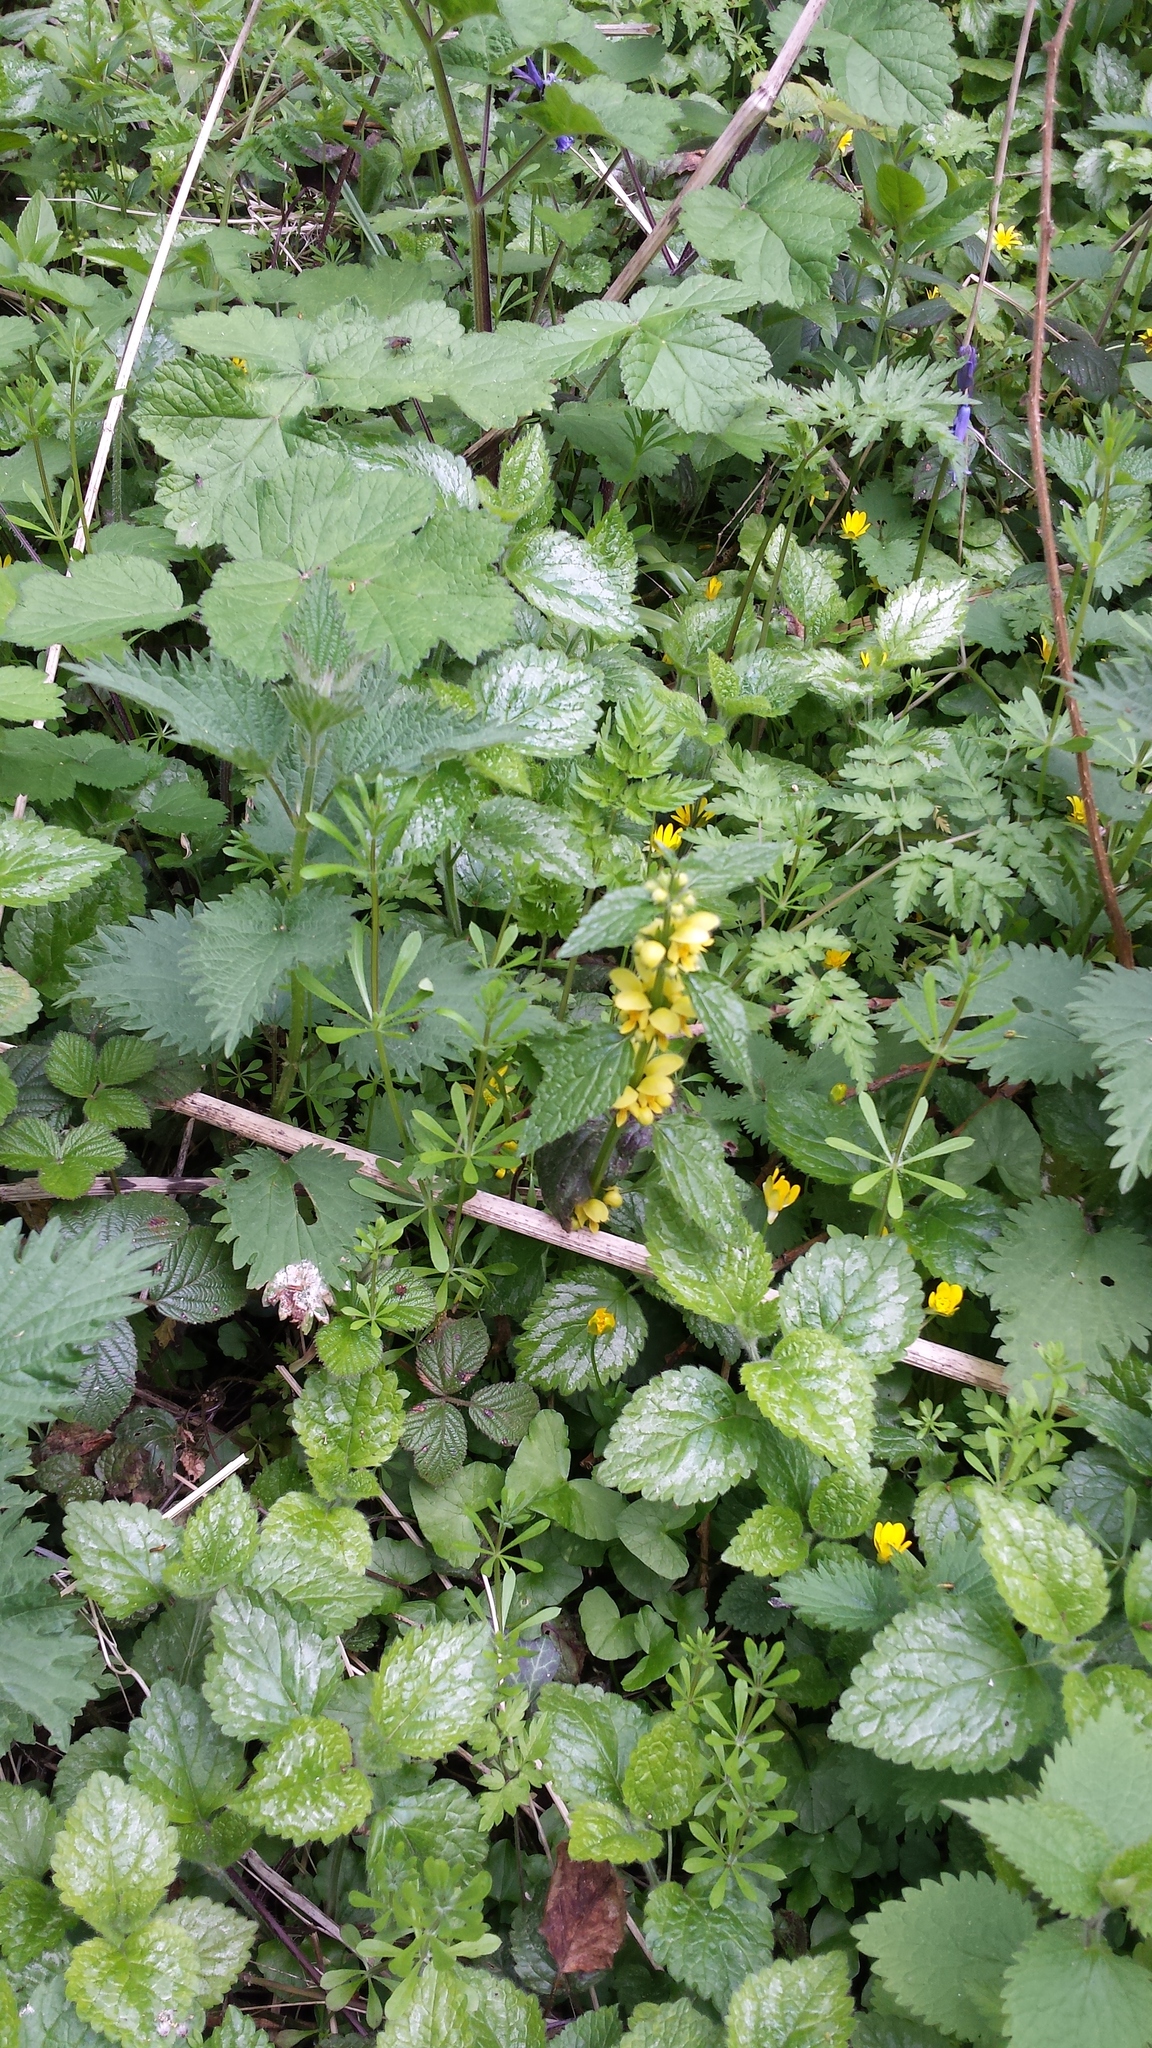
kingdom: Plantae
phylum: Tracheophyta
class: Magnoliopsida
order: Lamiales
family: Lamiaceae
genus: Lamium
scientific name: Lamium galeobdolon
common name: Yellow archangel
